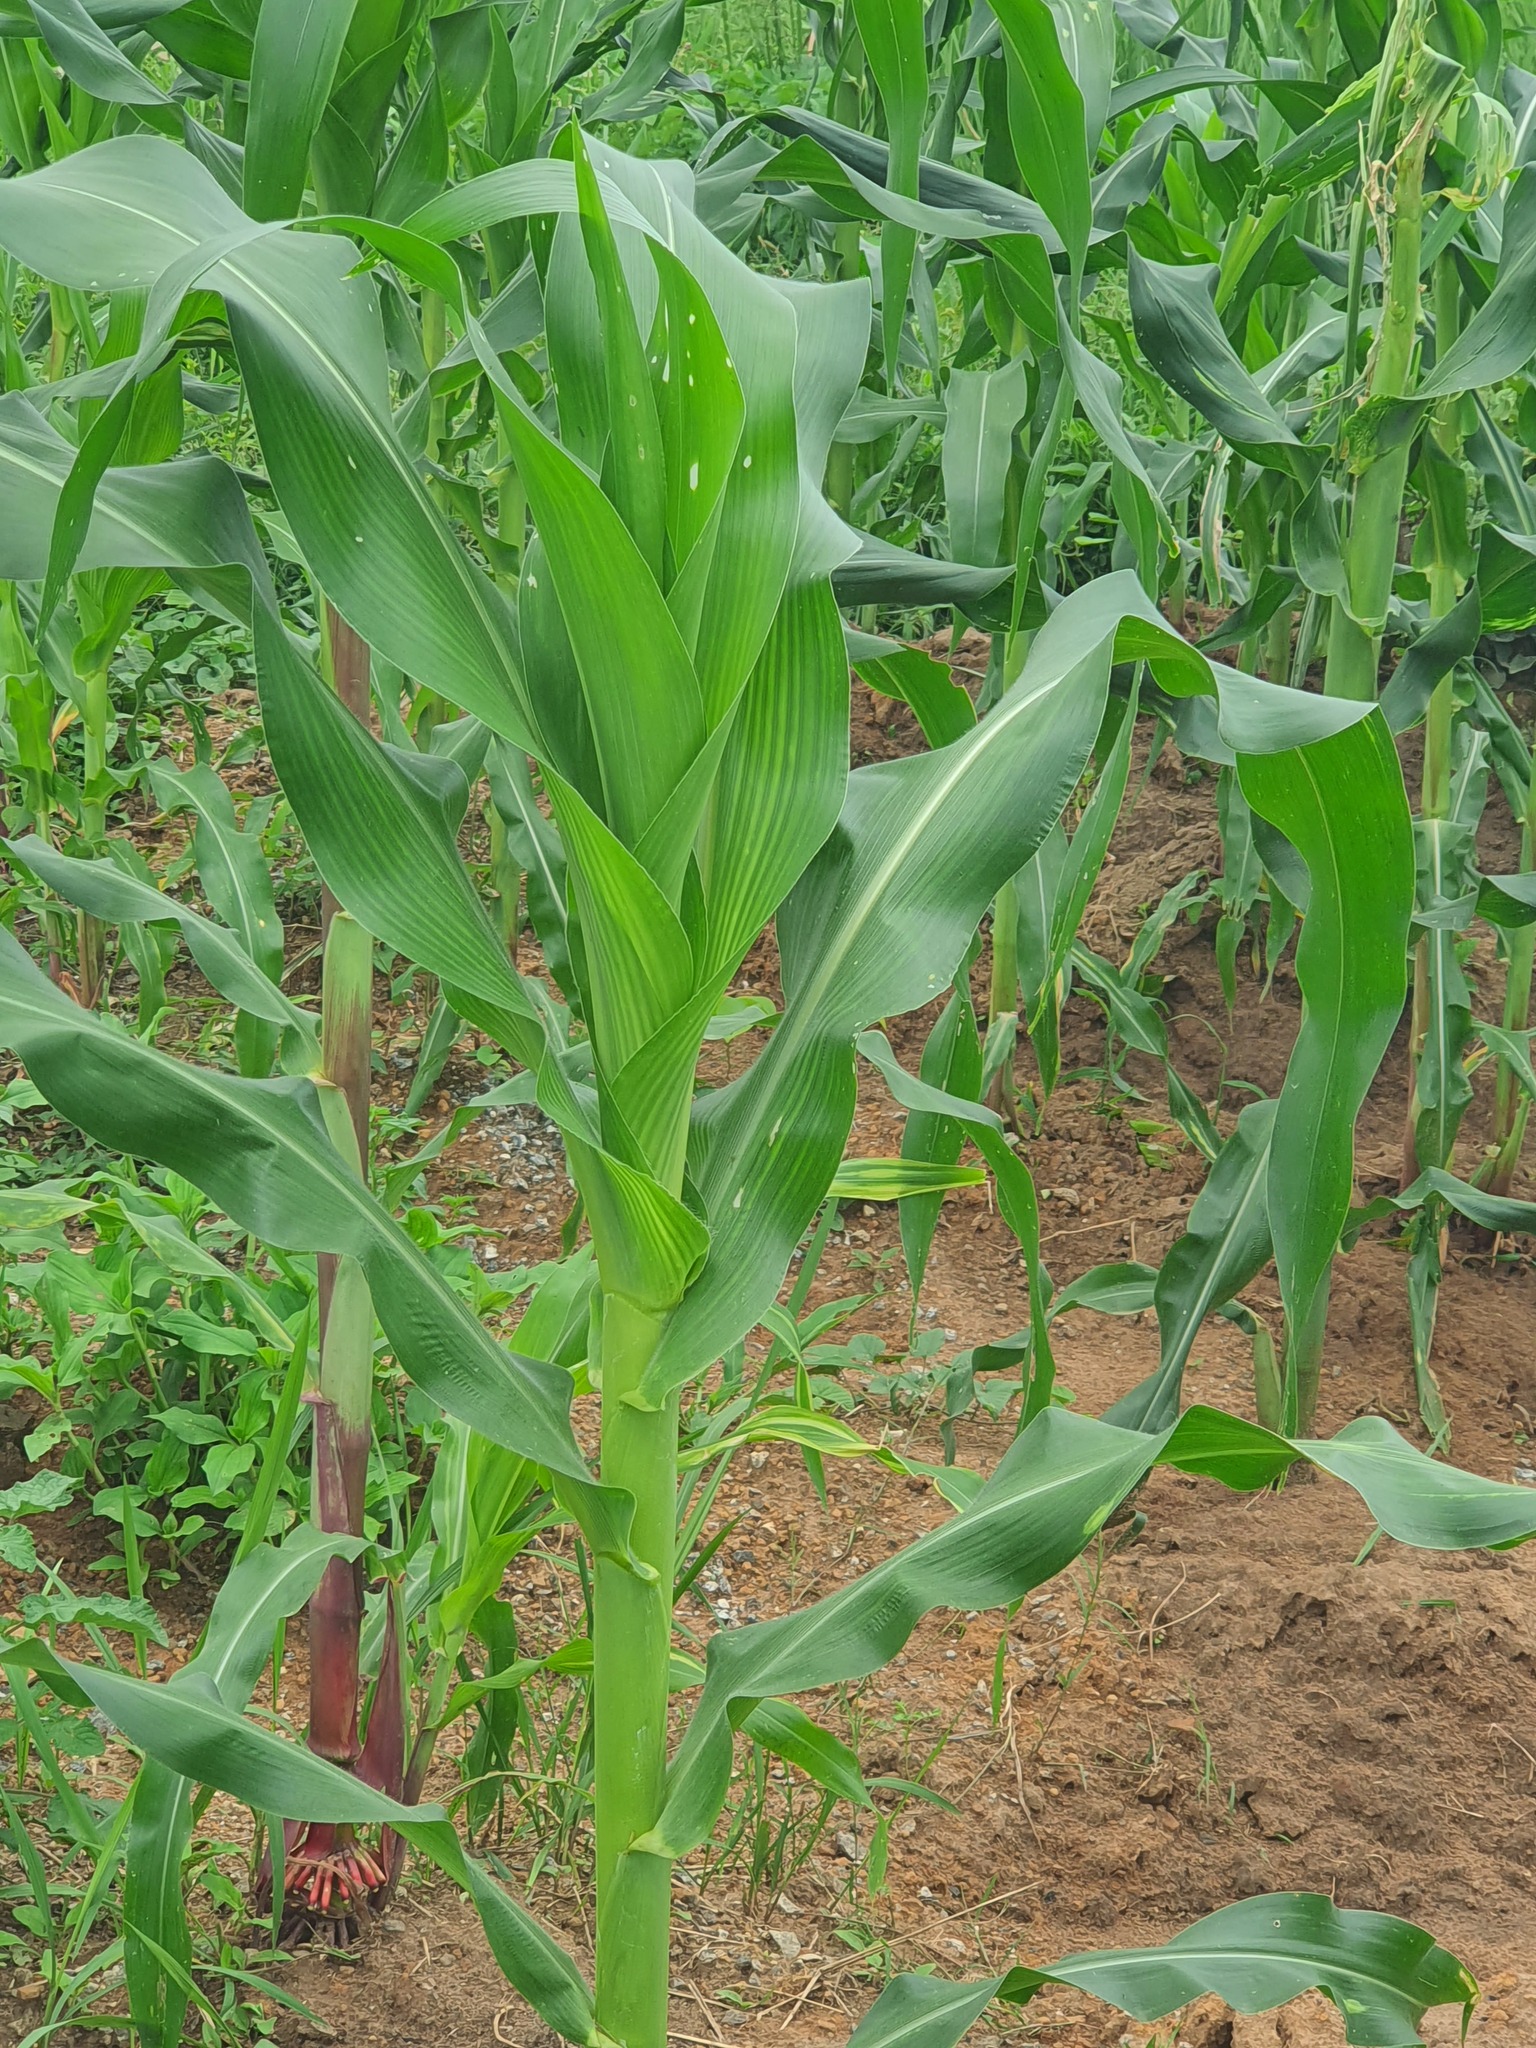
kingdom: Plantae
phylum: Tracheophyta
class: Liliopsida
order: Poales
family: Poaceae
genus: Zea
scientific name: Zea mays
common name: Maize
